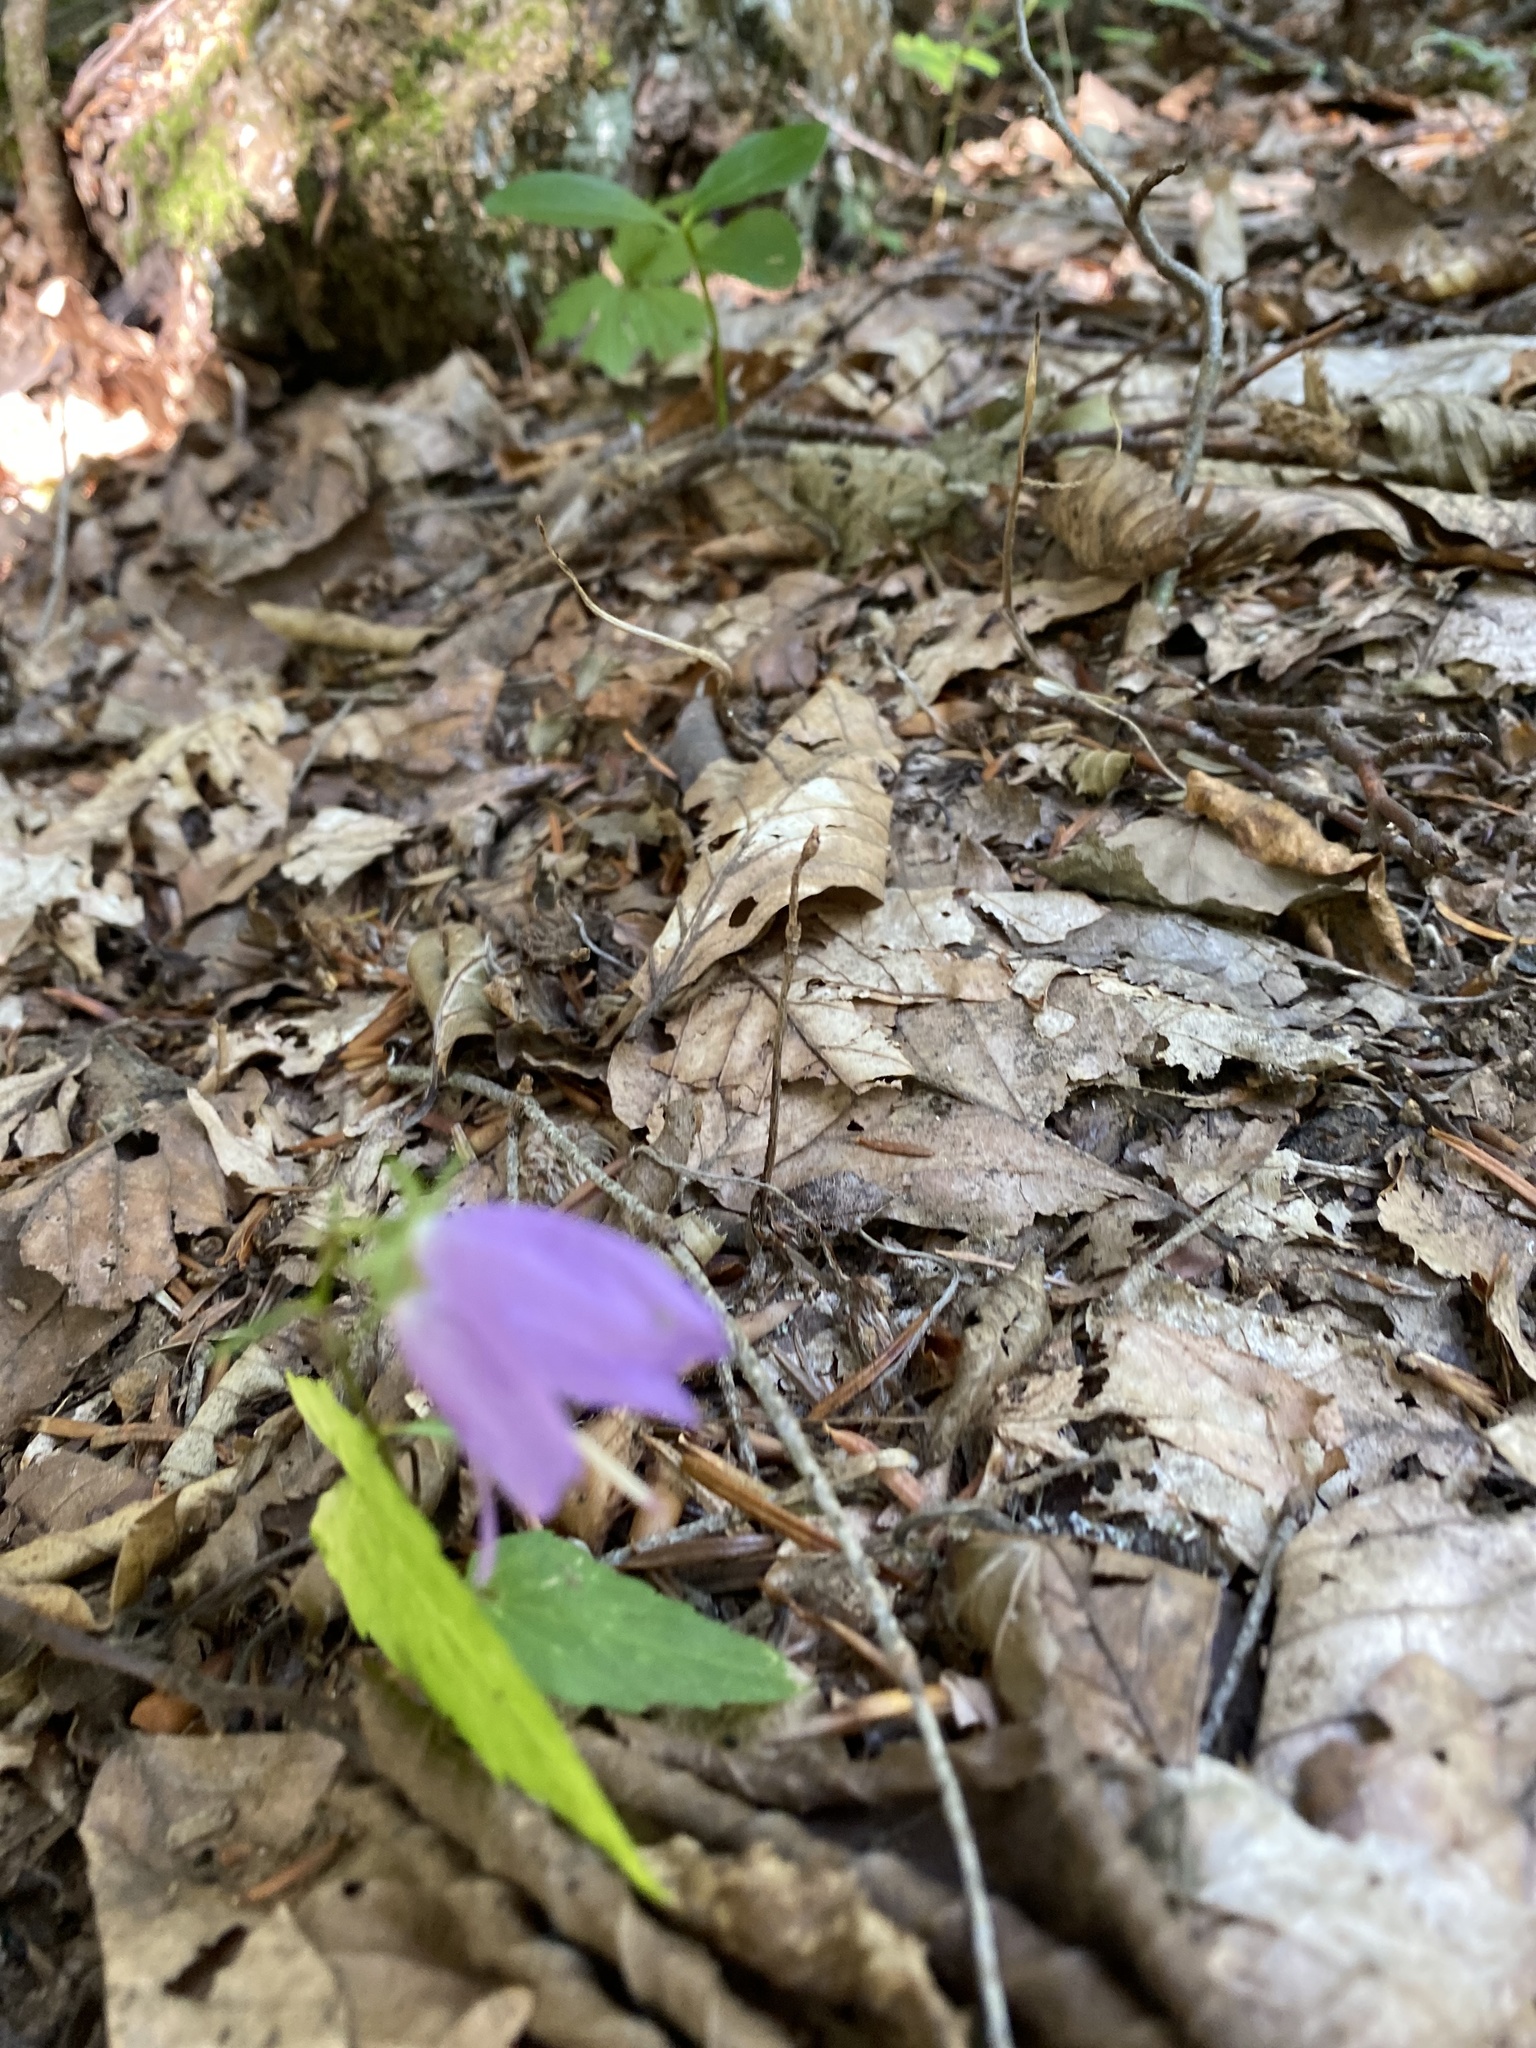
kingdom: Plantae
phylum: Tracheophyta
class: Magnoliopsida
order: Asterales
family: Campanulaceae
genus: Campanula
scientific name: Campanula rapunculoides
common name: Creeping bellflower
